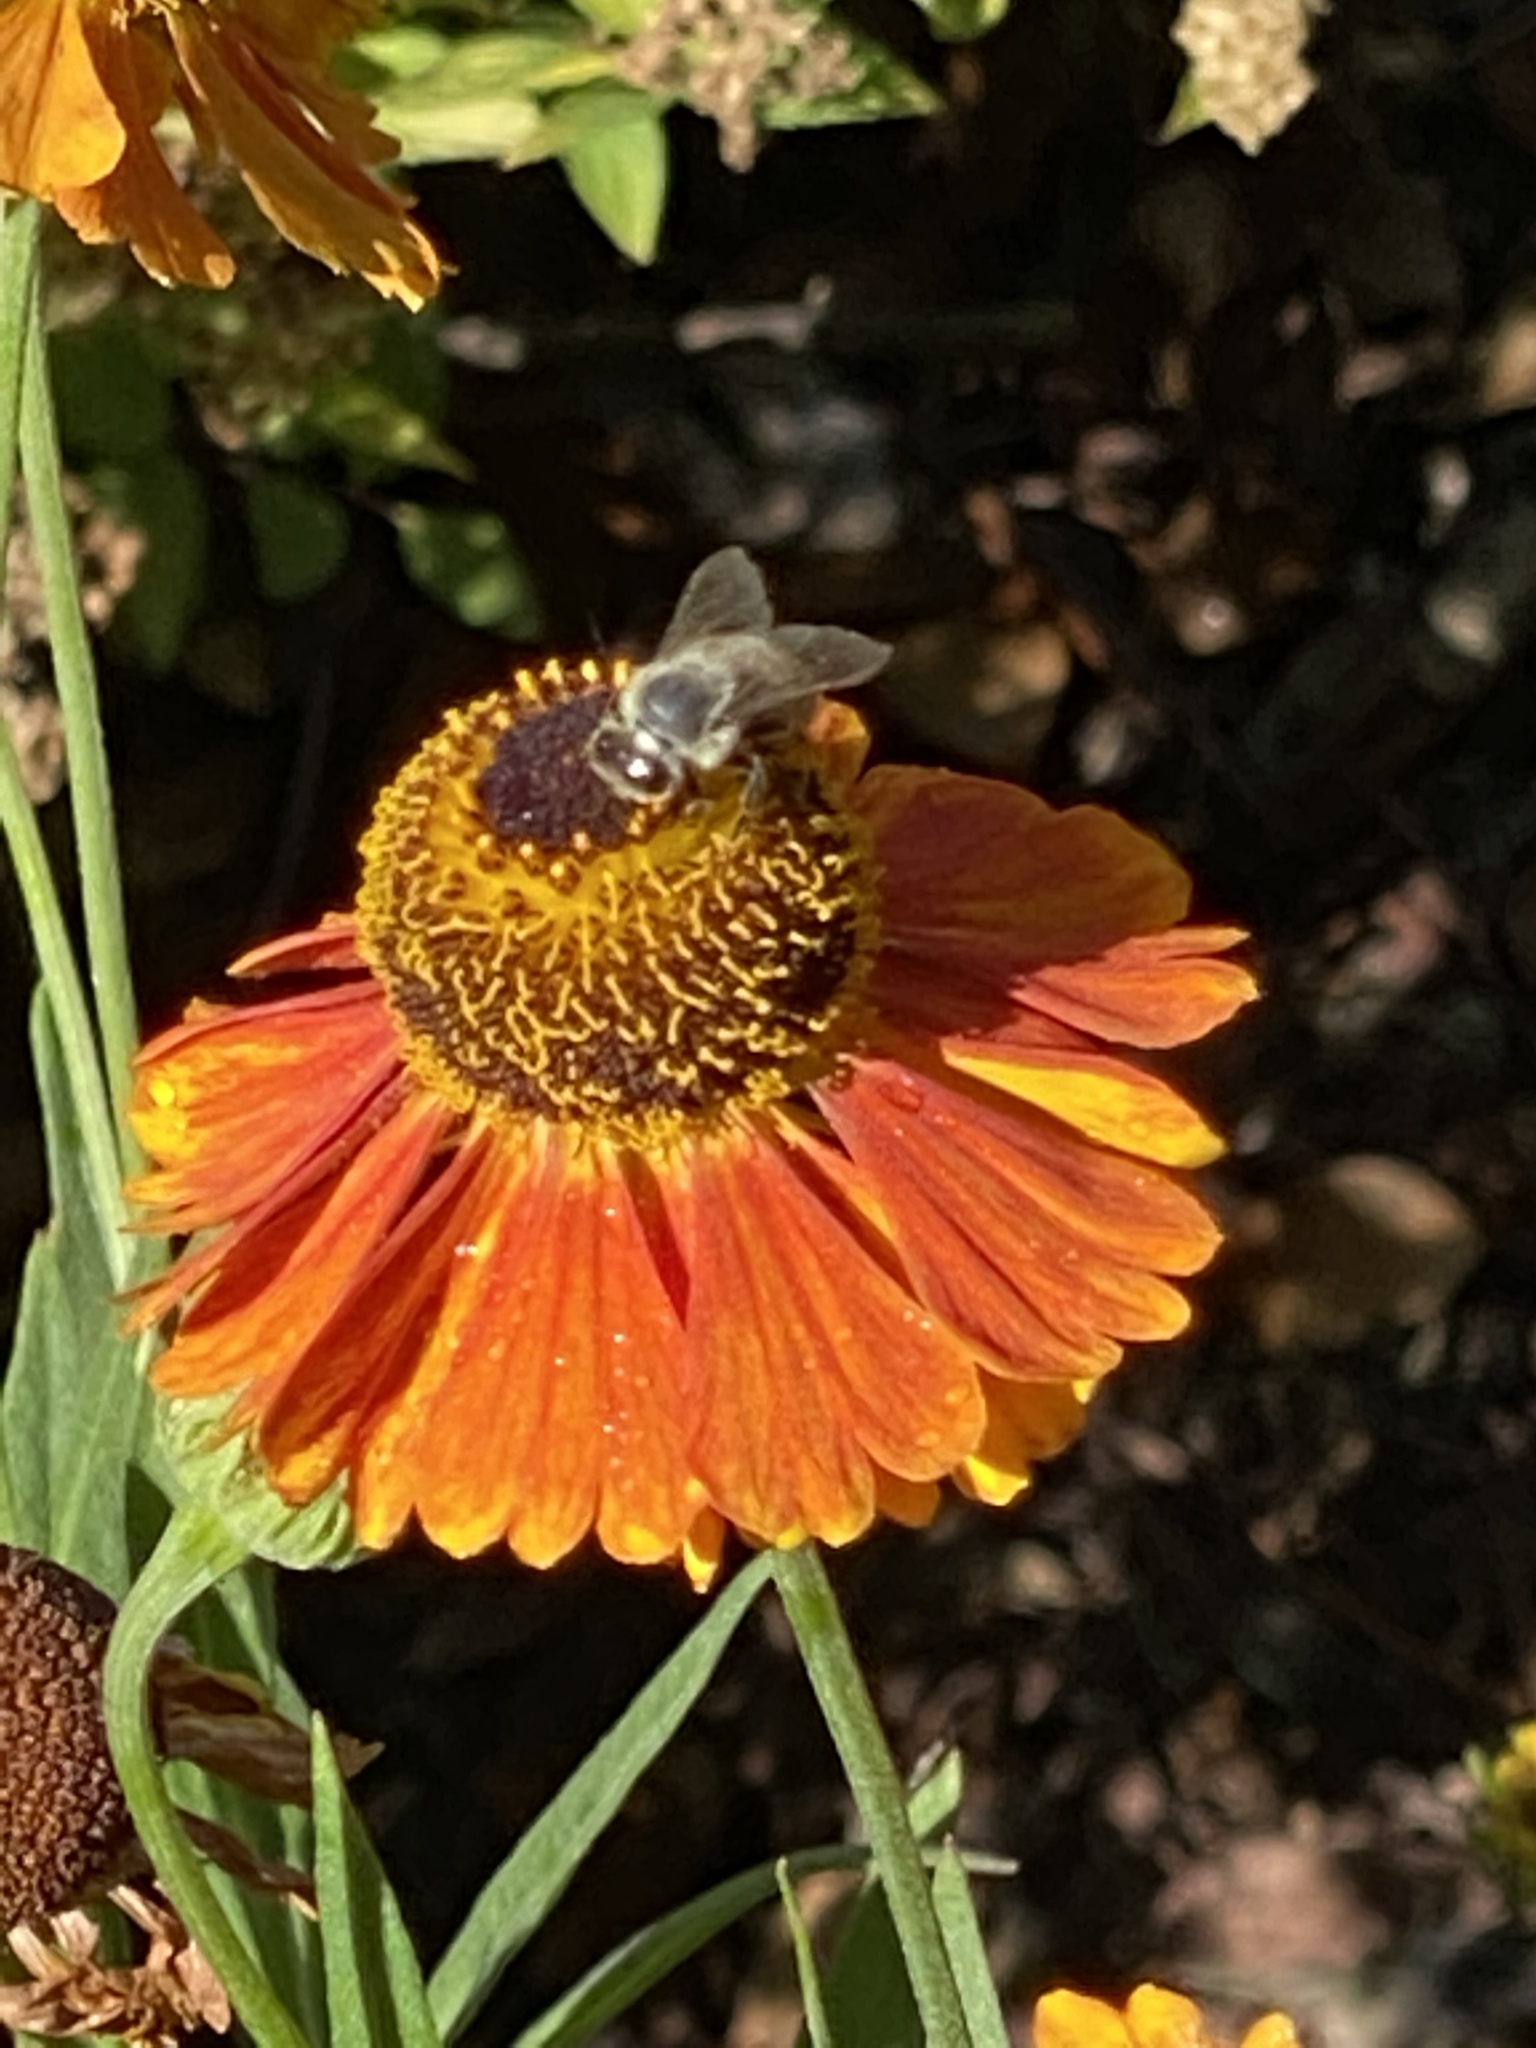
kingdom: Animalia
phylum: Arthropoda
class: Insecta
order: Hymenoptera
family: Apidae
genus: Apis
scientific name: Apis mellifera
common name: Honey bee
